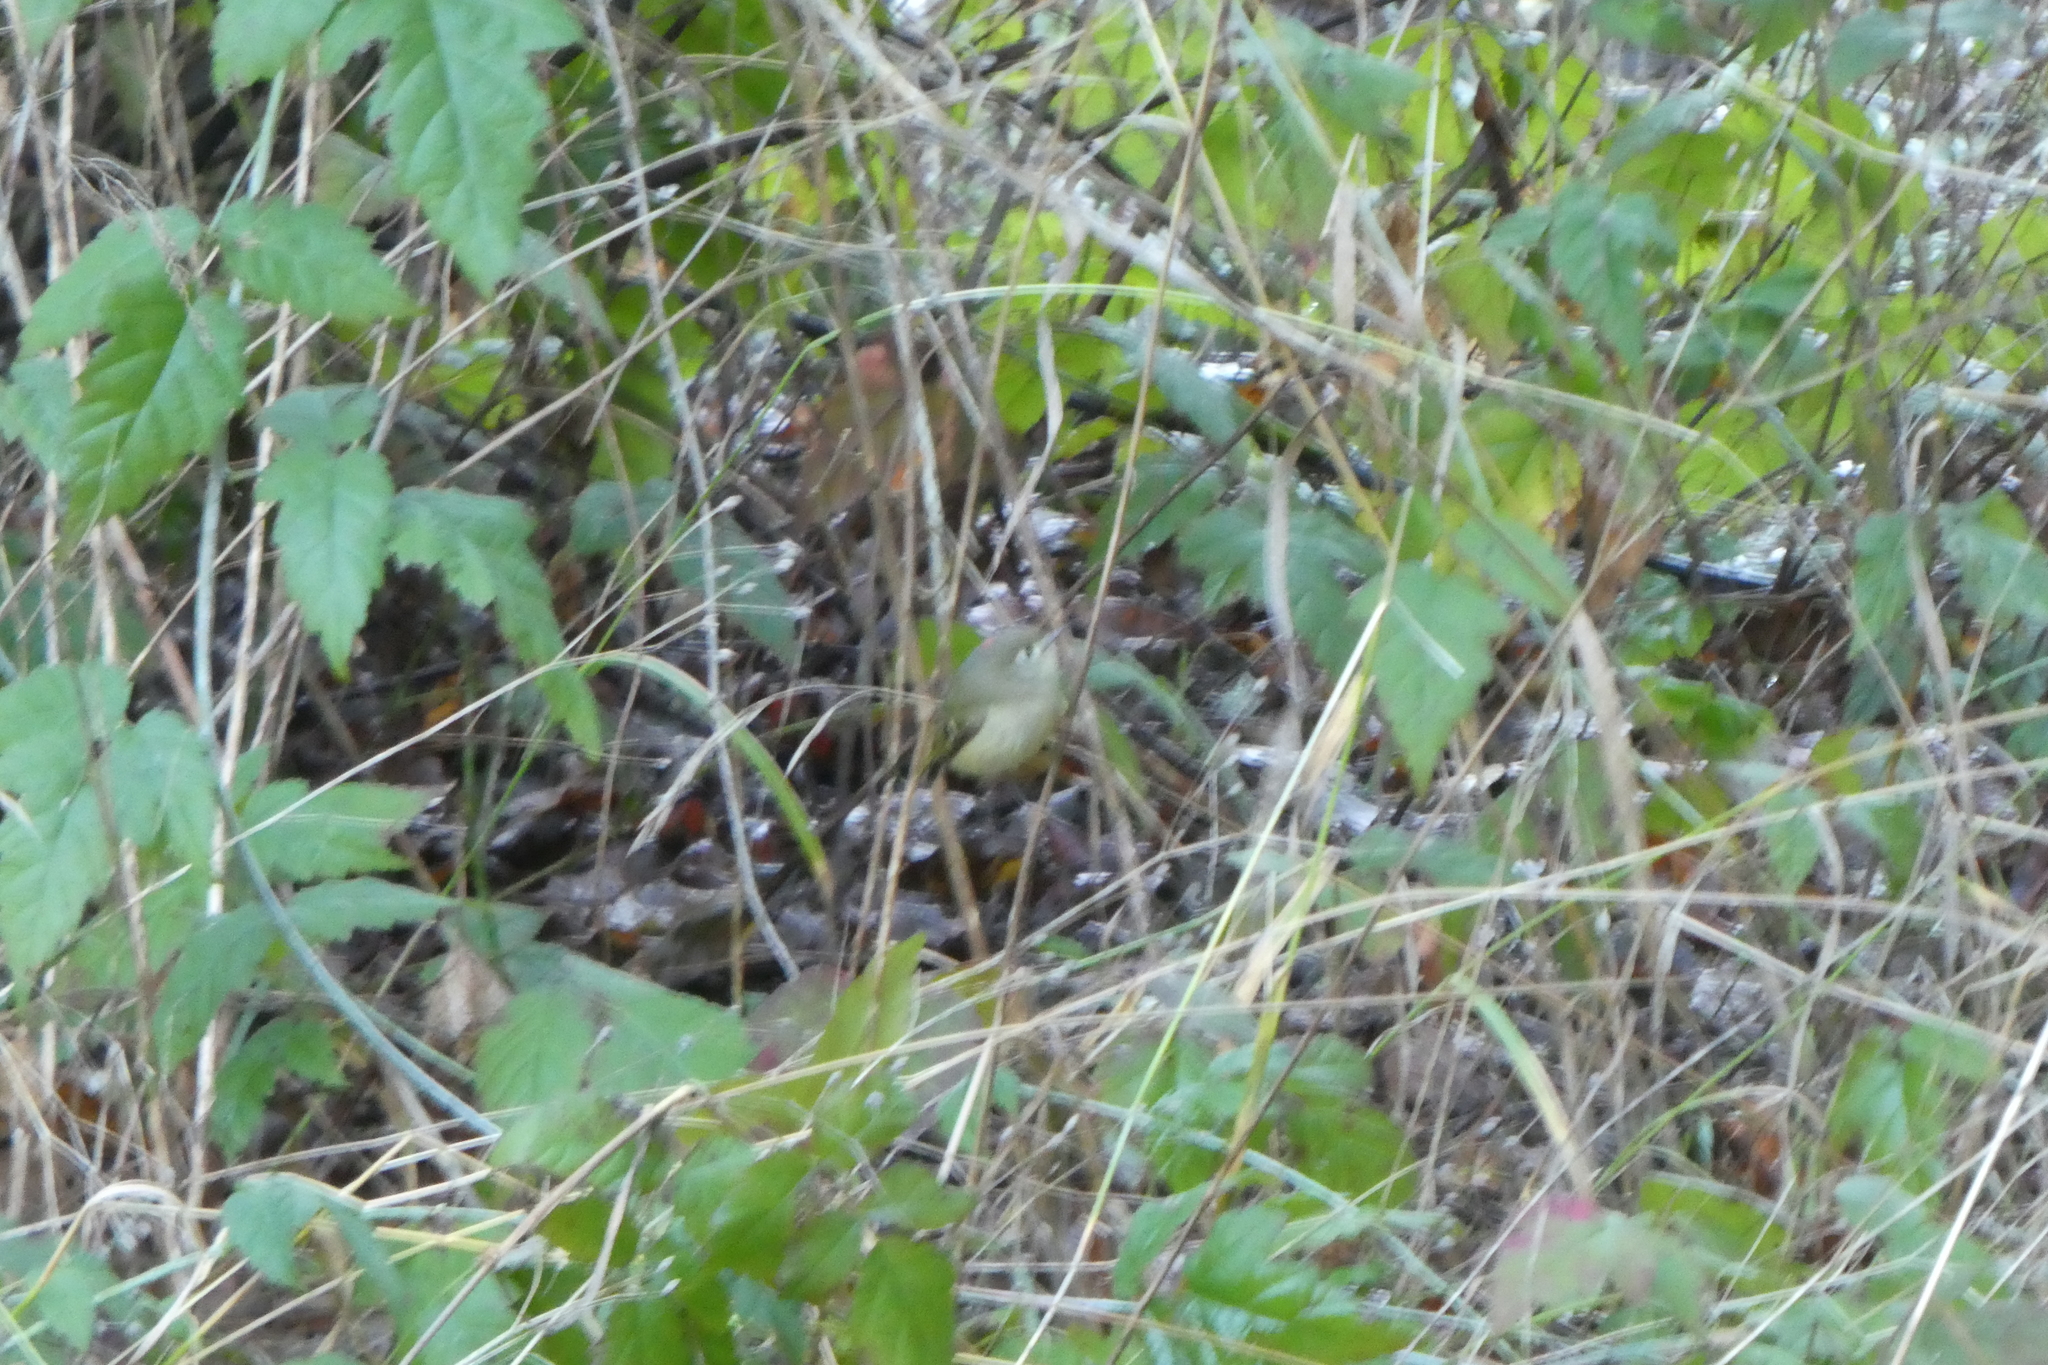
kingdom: Animalia
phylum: Chordata
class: Aves
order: Passeriformes
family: Regulidae
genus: Regulus
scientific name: Regulus calendula
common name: Ruby-crowned kinglet
